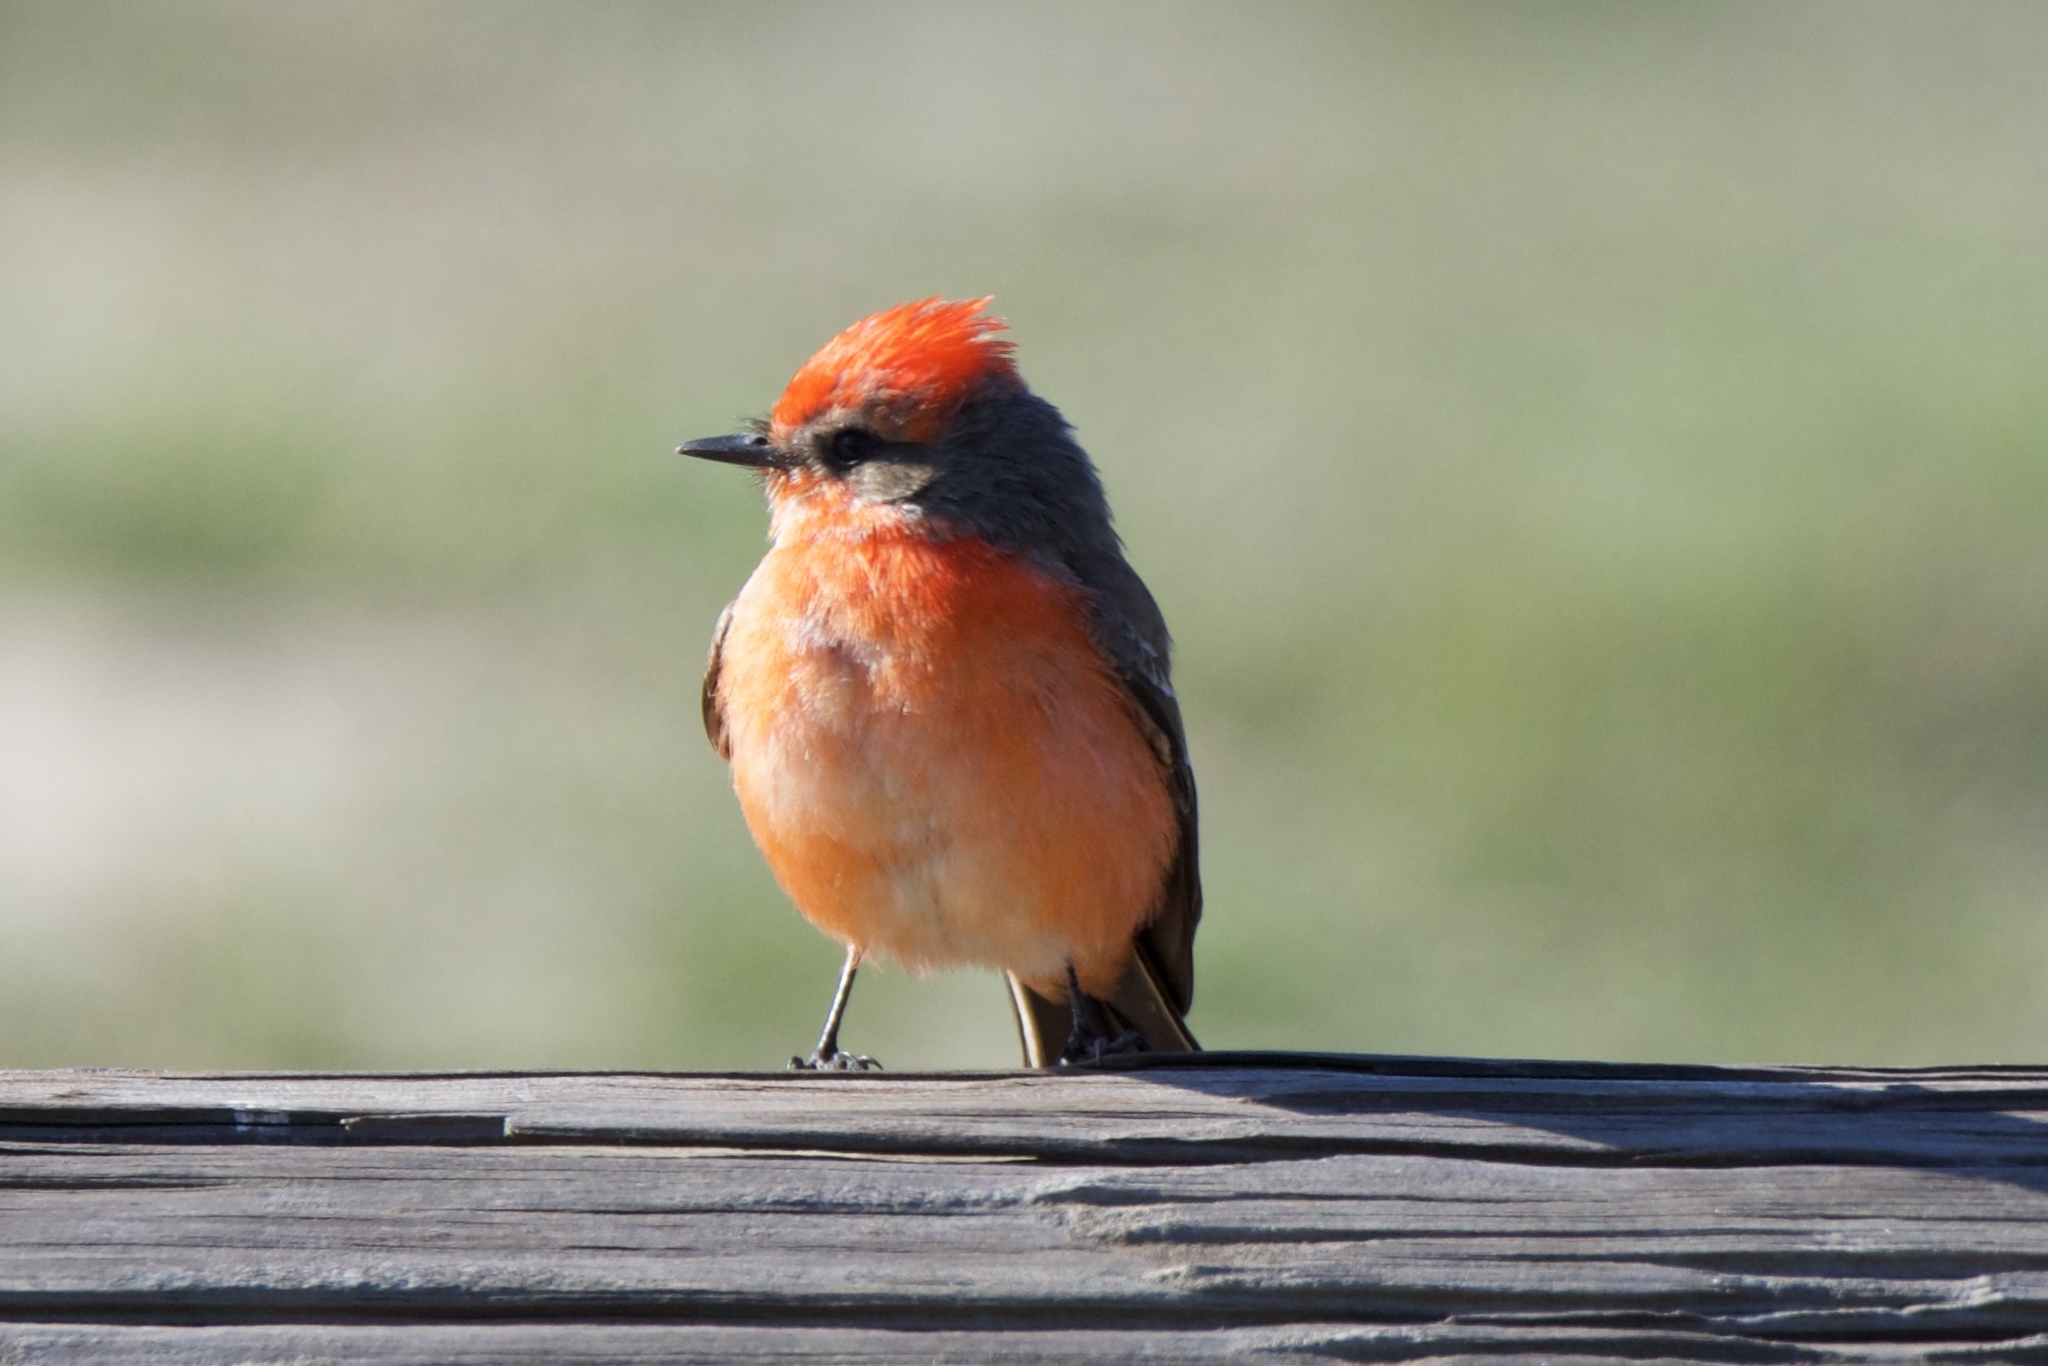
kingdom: Animalia
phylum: Chordata
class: Aves
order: Passeriformes
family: Tyrannidae
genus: Pyrocephalus
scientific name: Pyrocephalus rubinus
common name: Vermilion flycatcher
